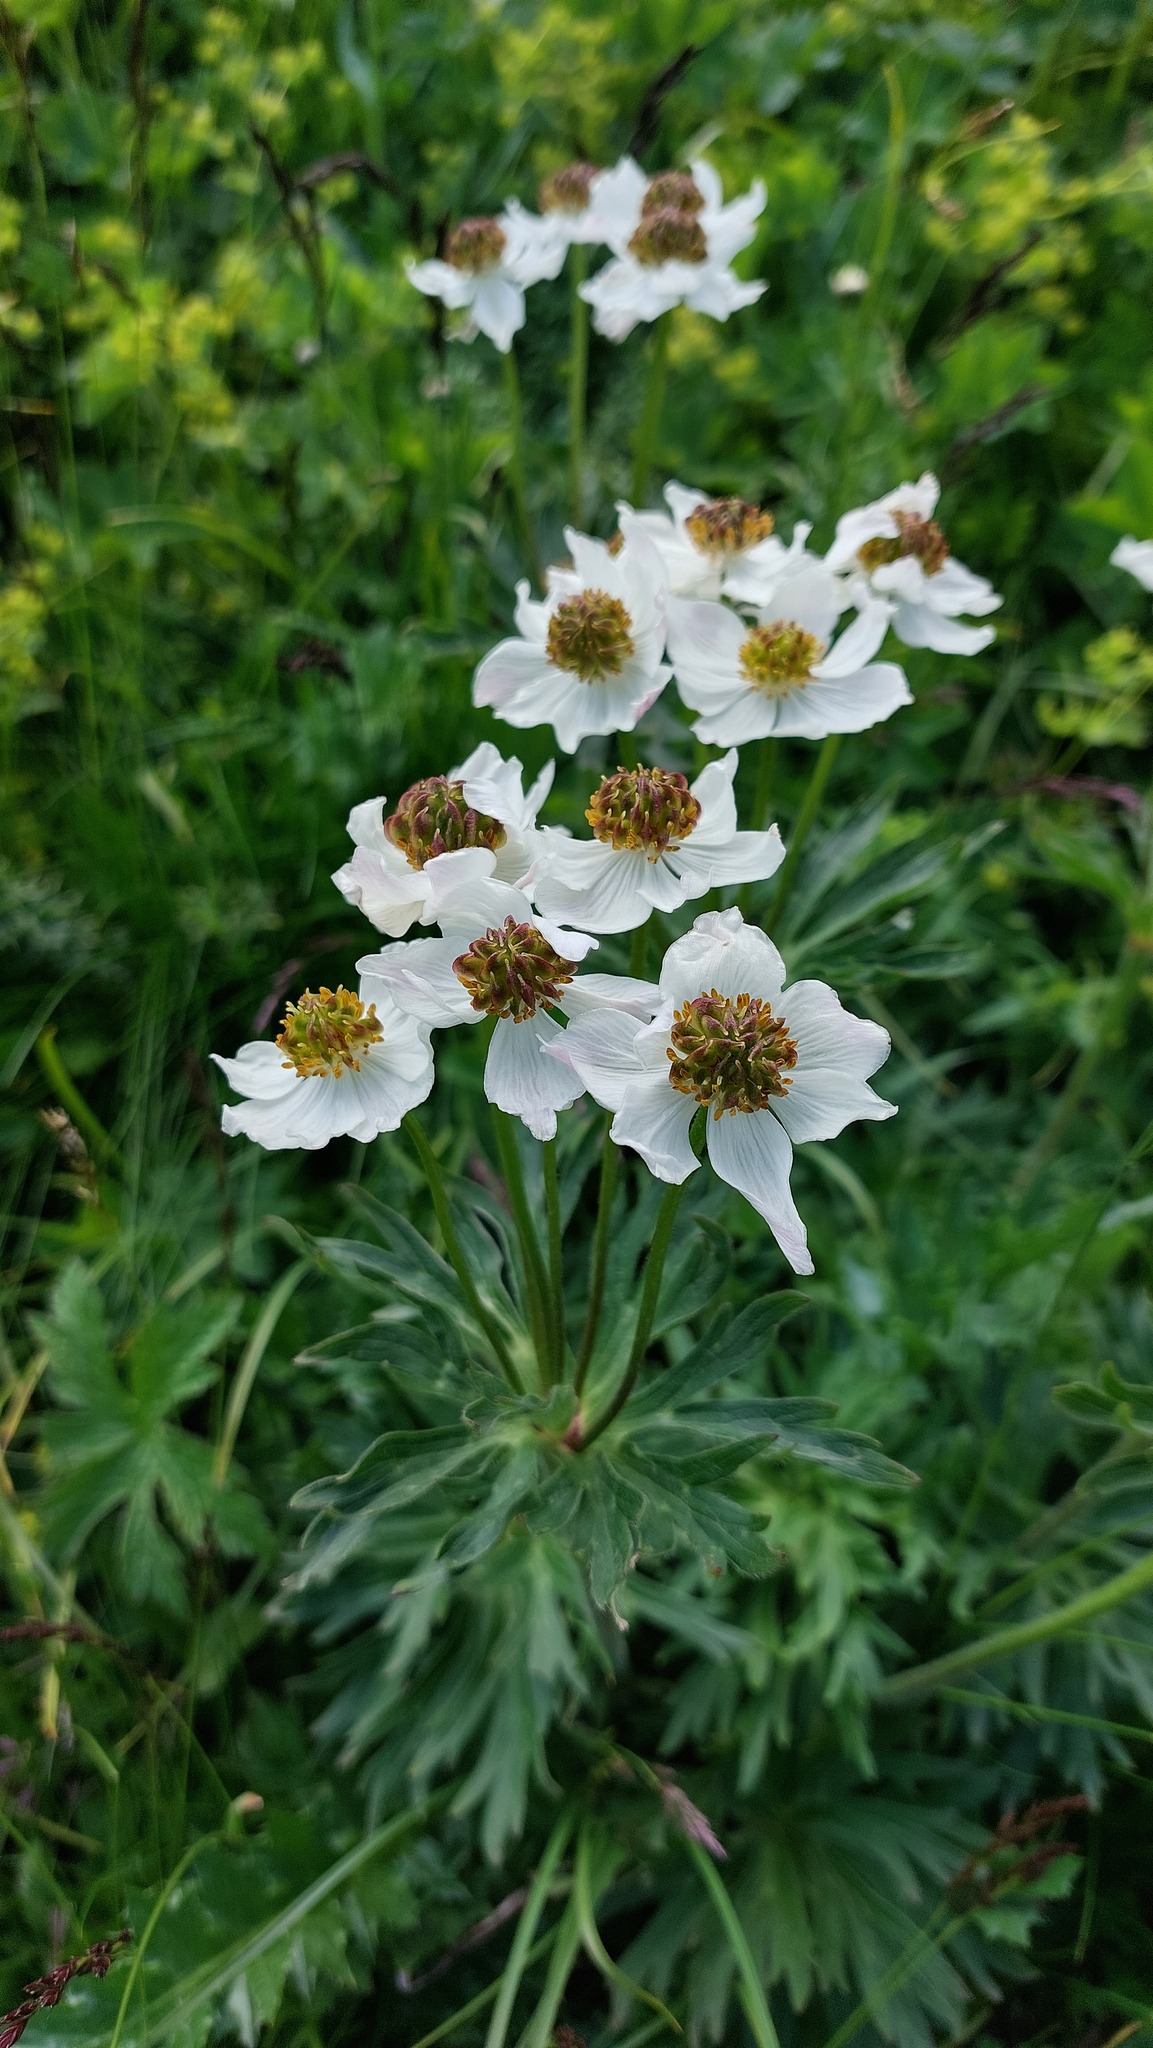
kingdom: Plantae
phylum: Tracheophyta
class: Magnoliopsida
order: Ranunculales
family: Ranunculaceae
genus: Anemonastrum
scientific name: Anemonastrum narcissiflorum
